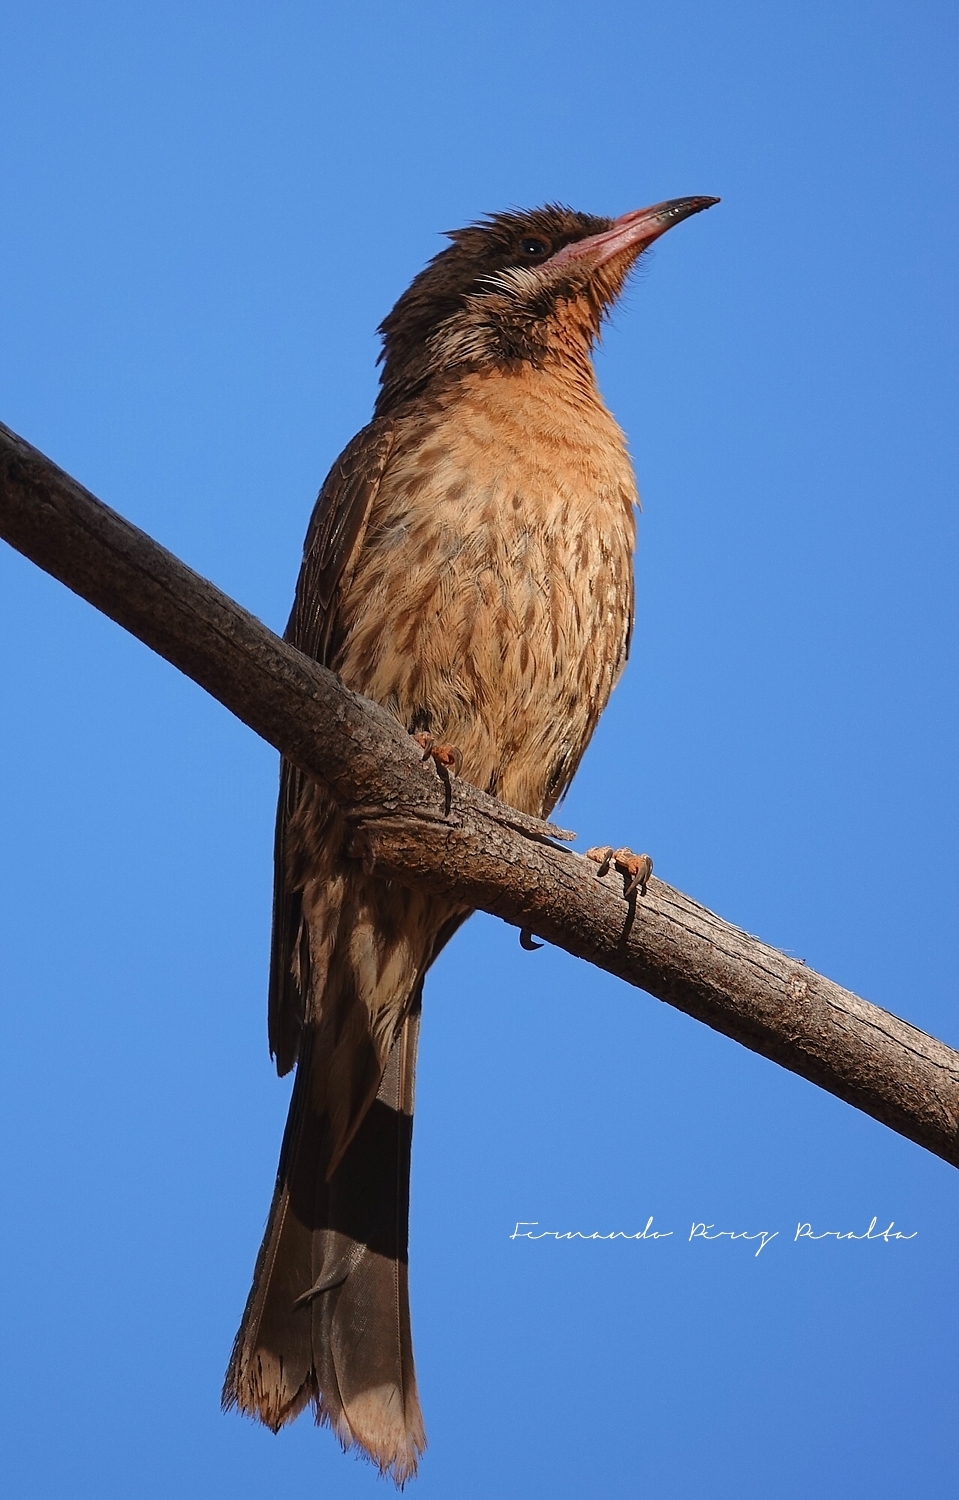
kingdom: Animalia
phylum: Chordata
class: Aves
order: Passeriformes
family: Meliphagidae
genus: Acanthagenys
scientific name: Acanthagenys rufogularis
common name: Spiny-cheeked honeyeater
